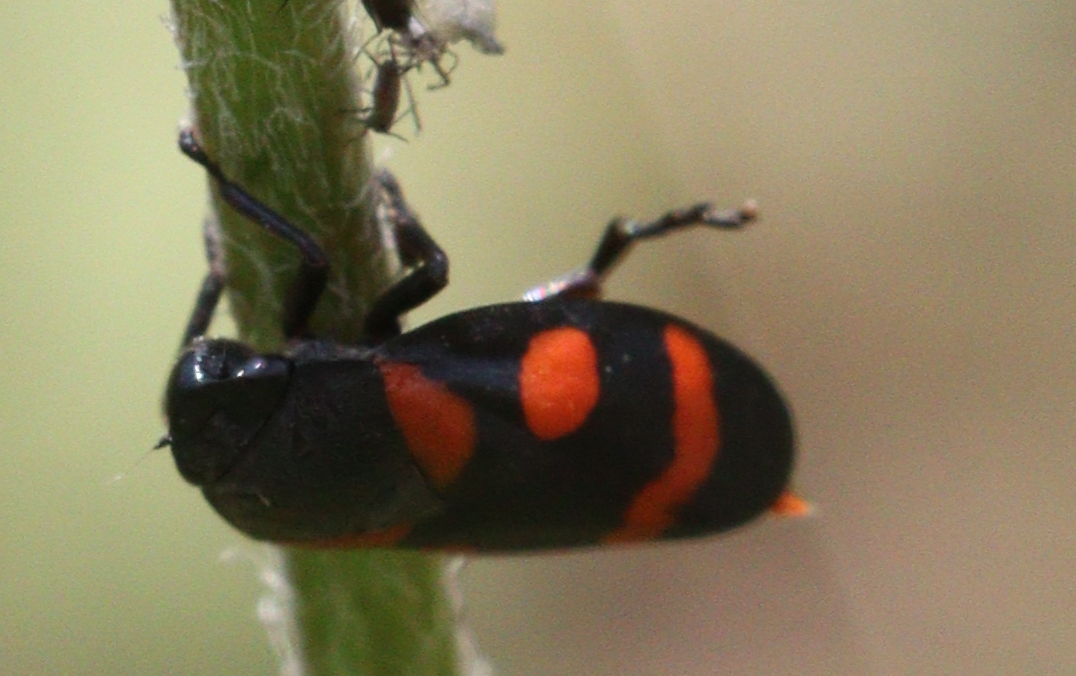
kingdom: Animalia
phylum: Arthropoda
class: Insecta
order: Hemiptera
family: Cercopidae
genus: Cercopis
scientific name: Cercopis sanguinolenta
